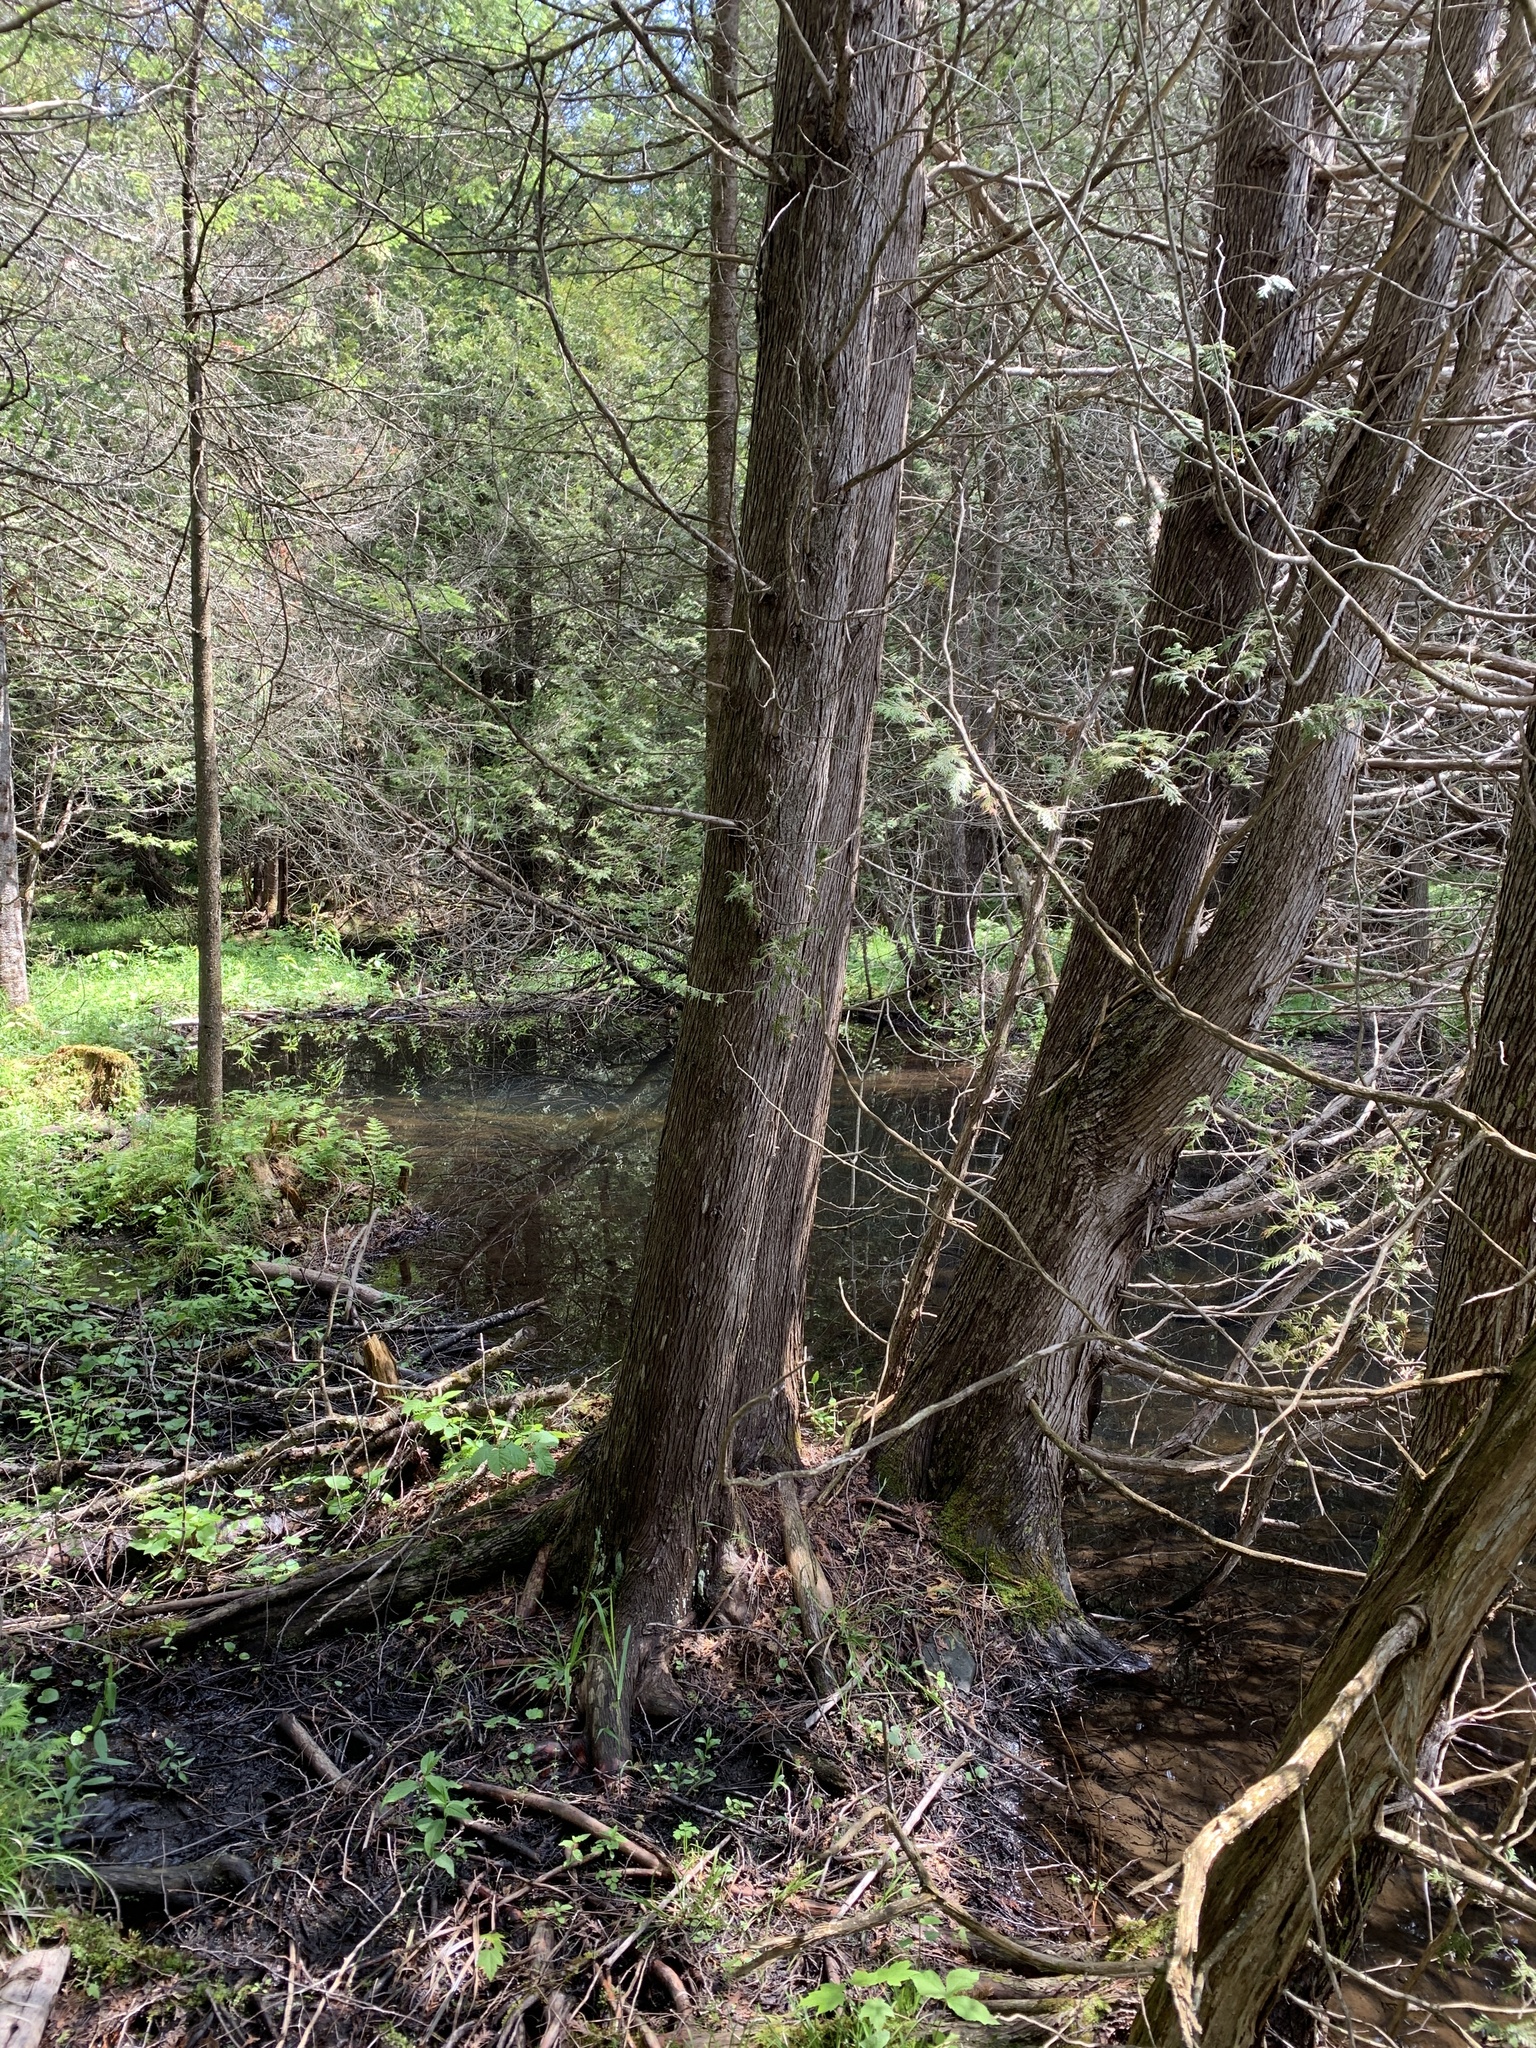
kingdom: Plantae
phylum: Tracheophyta
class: Pinopsida
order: Pinales
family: Cupressaceae
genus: Thuja
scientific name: Thuja occidentalis
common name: Northern white-cedar
